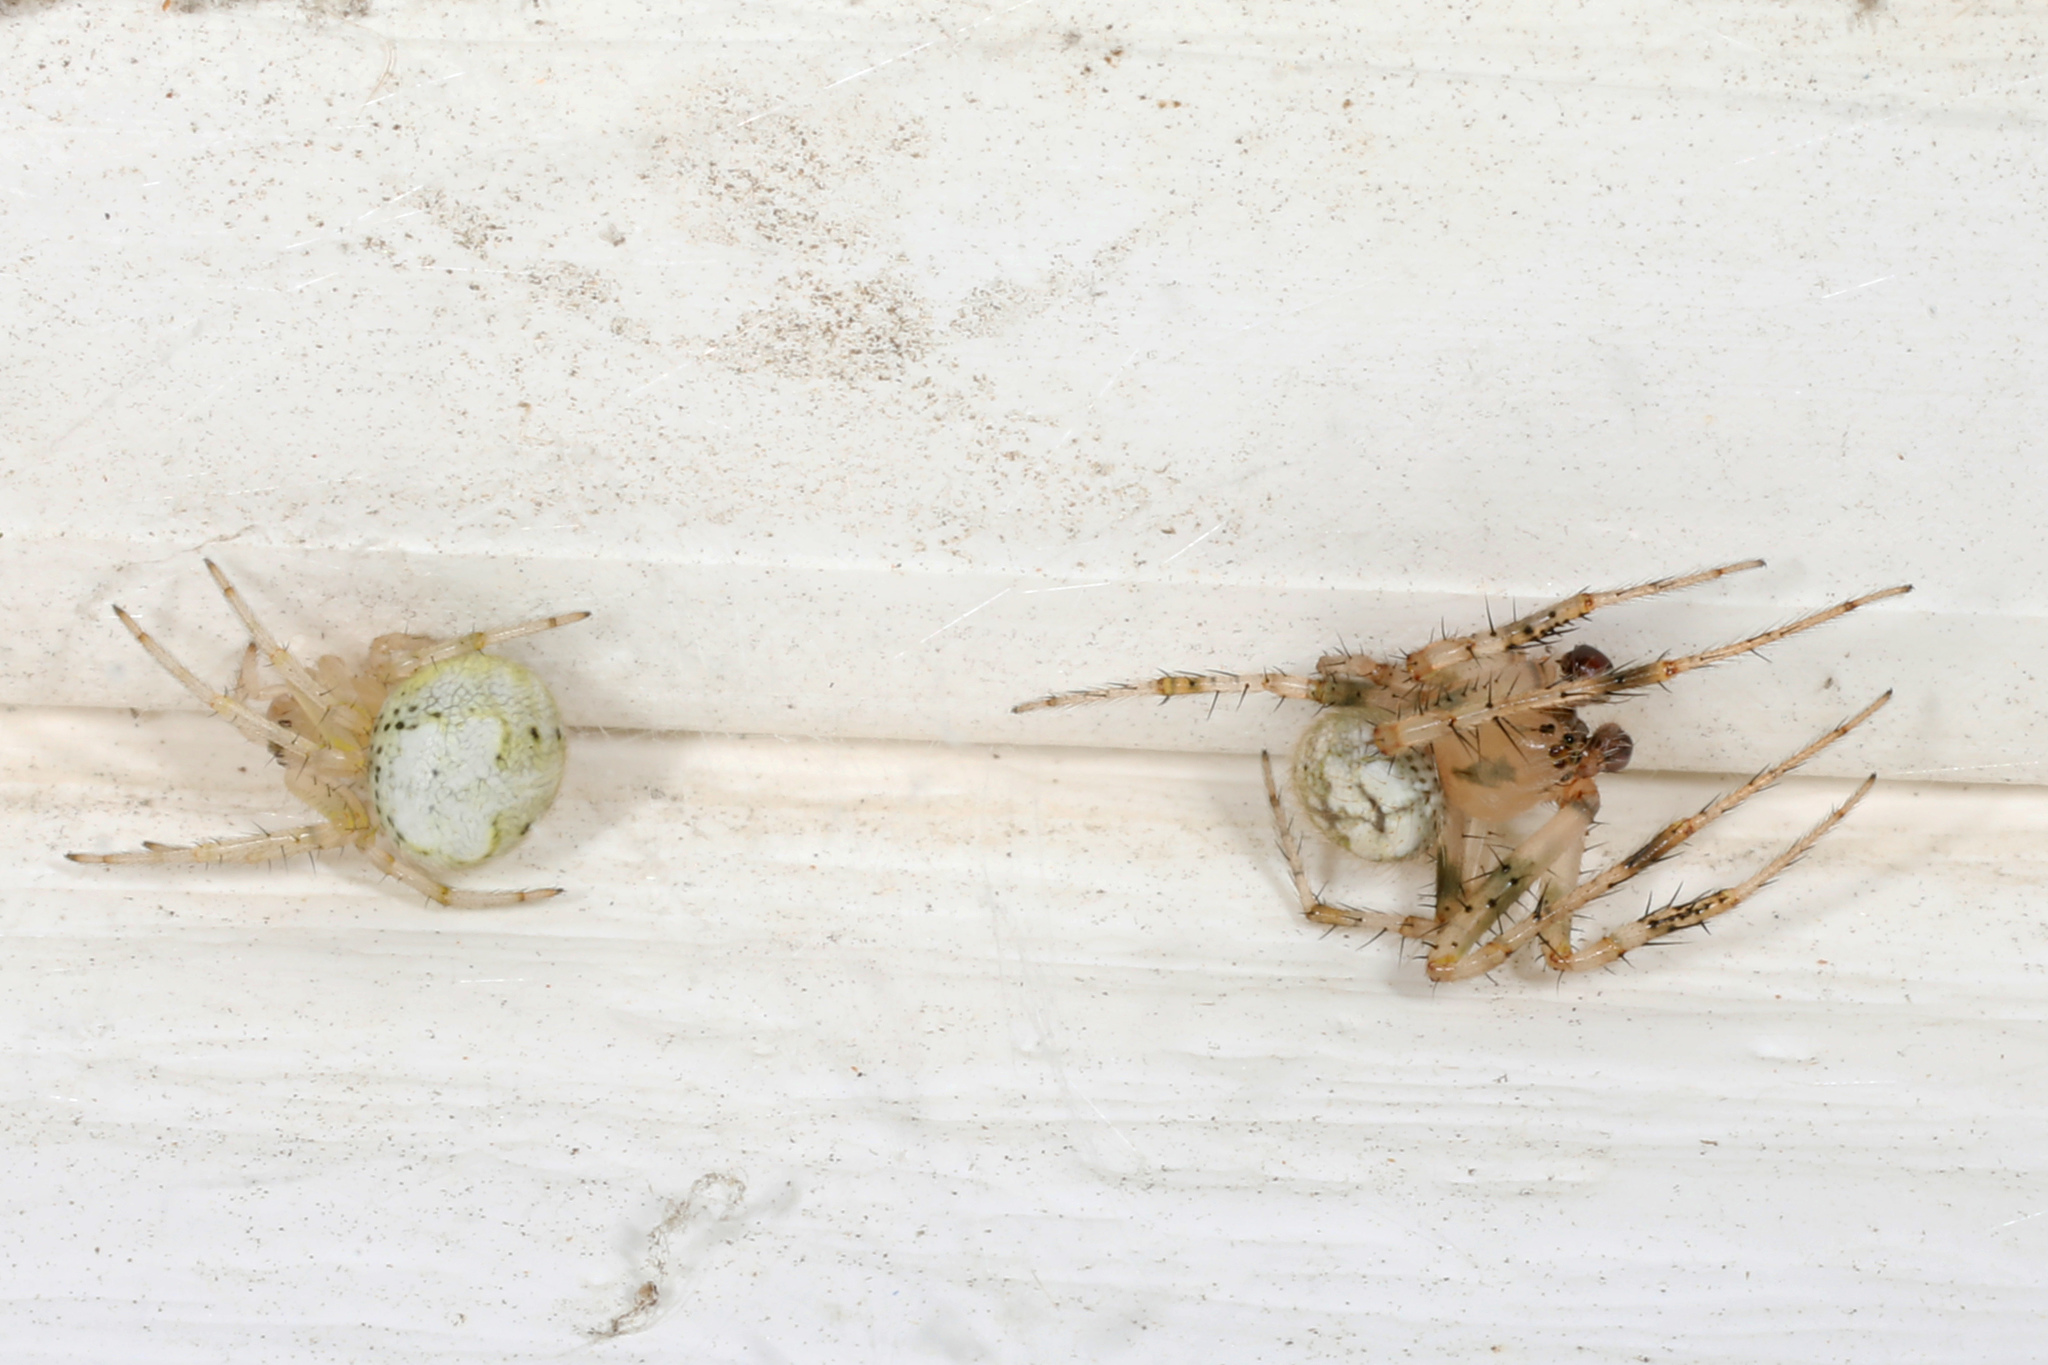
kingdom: Animalia
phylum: Arthropoda
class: Arachnida
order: Araneae
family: Araneidae
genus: Araneus
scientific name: Araneus pegnia
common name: Orb weavers
